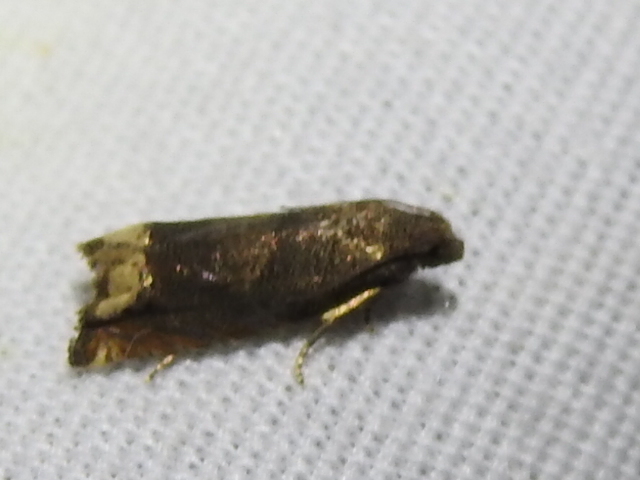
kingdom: Animalia
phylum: Arthropoda
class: Insecta
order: Lepidoptera
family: Tortricidae
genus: Epiblema
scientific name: Epiblema strenuana
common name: Ragweed borer moth
